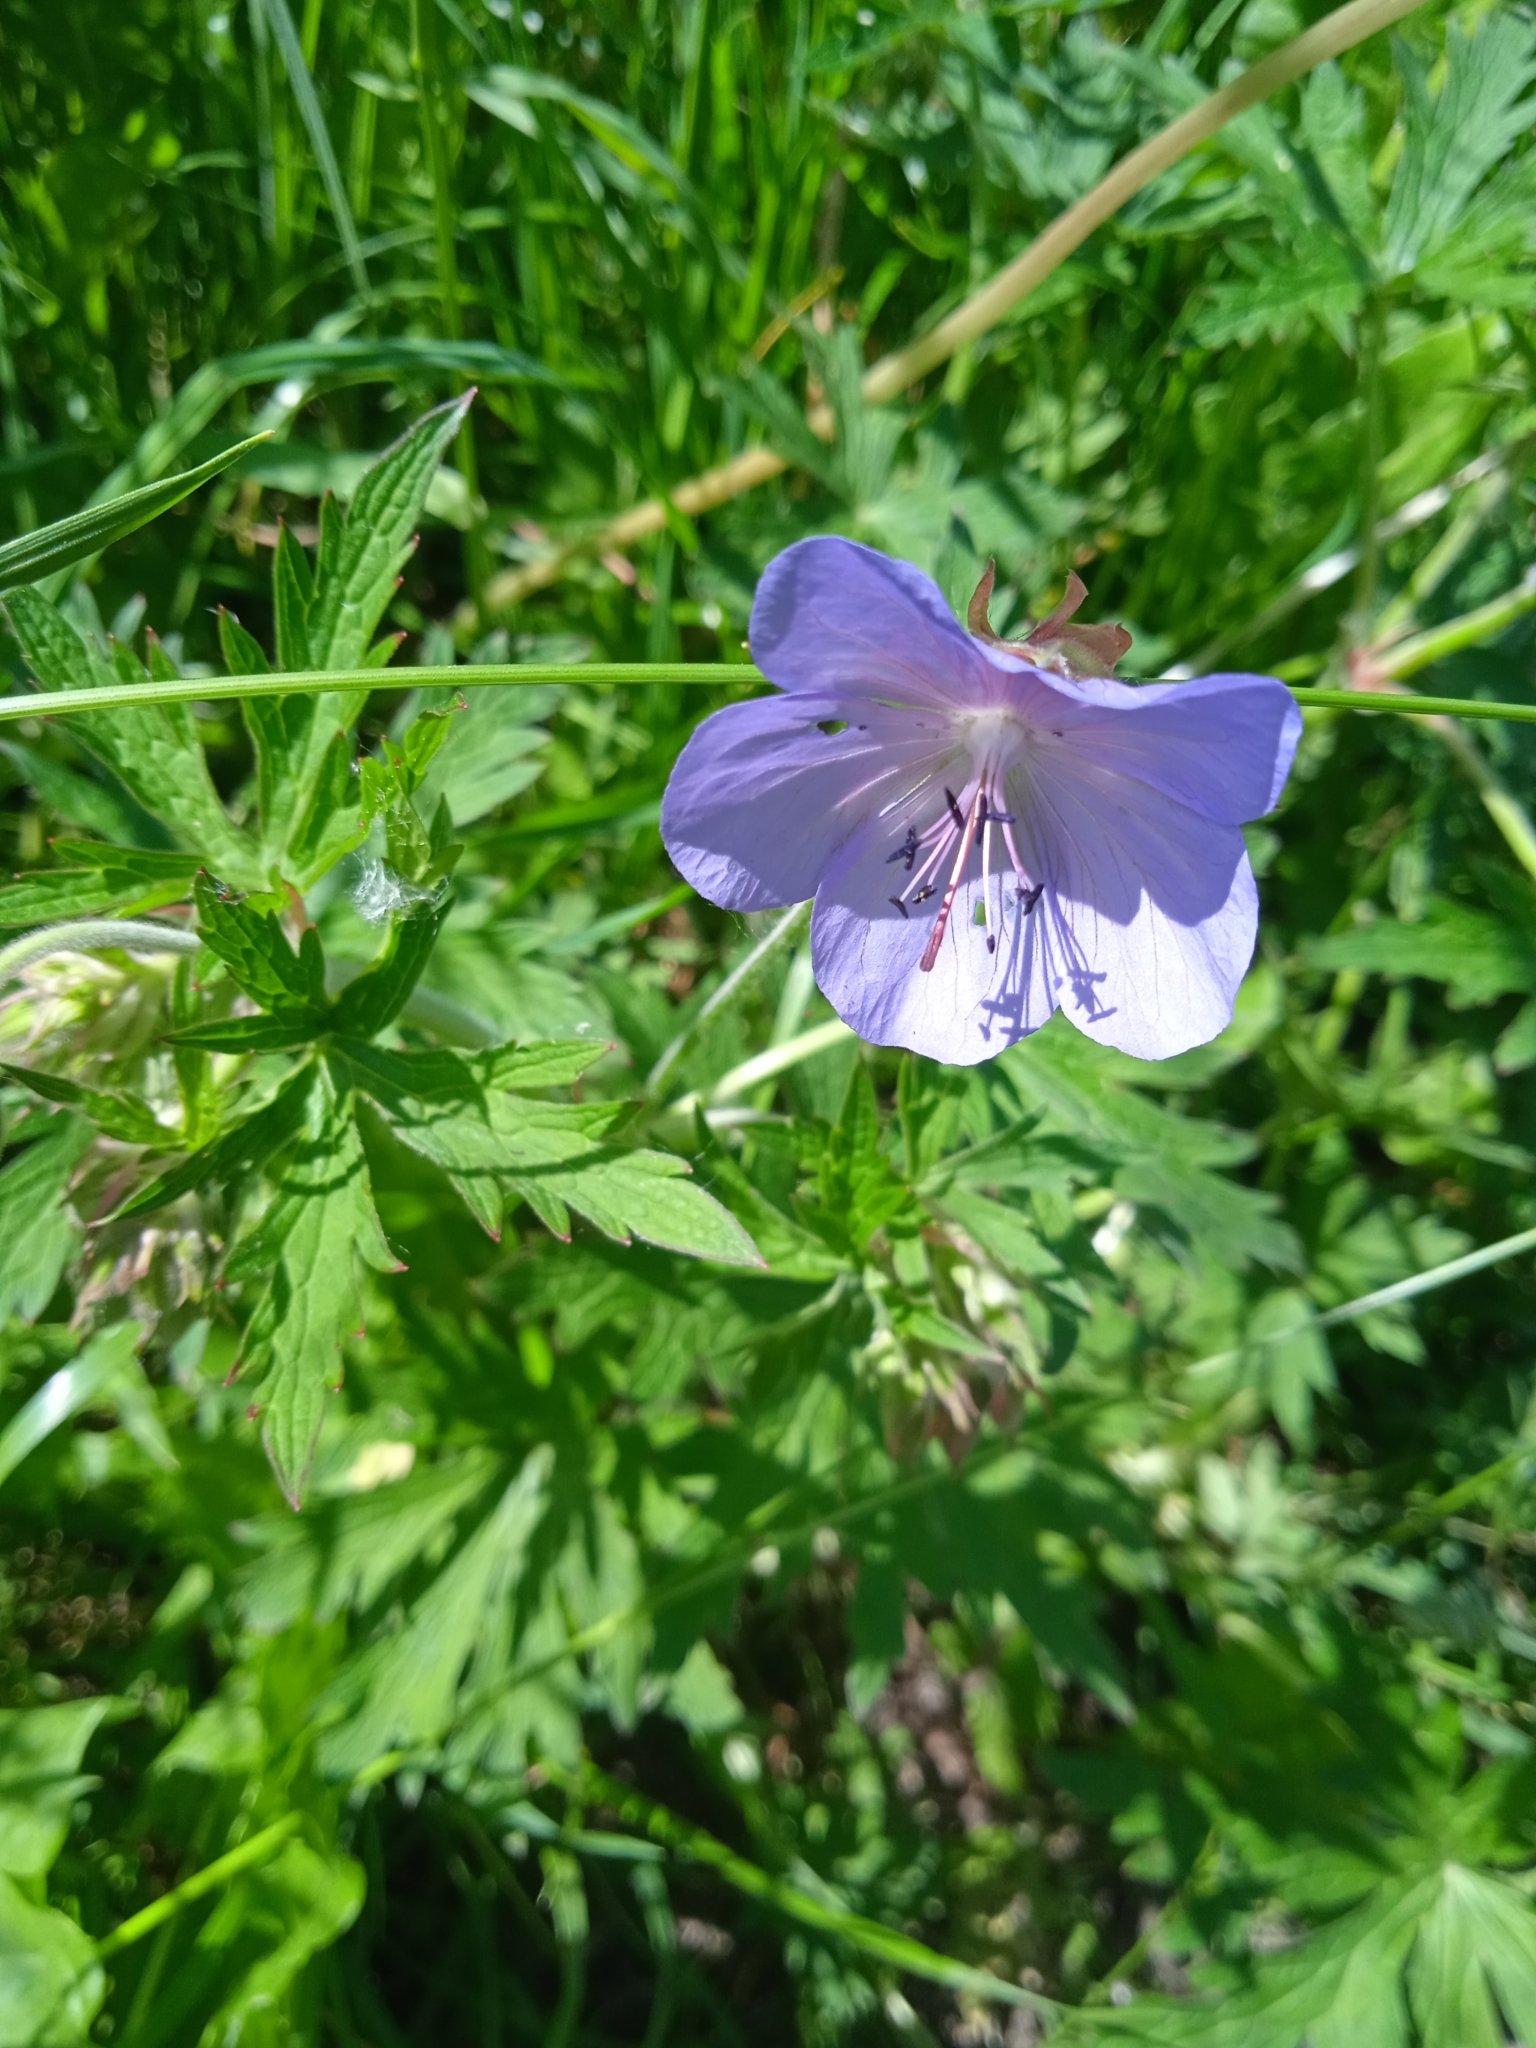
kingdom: Plantae
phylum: Tracheophyta
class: Magnoliopsida
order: Geraniales
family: Geraniaceae
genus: Geranium
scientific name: Geranium pratense
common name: Meadow crane's-bill
